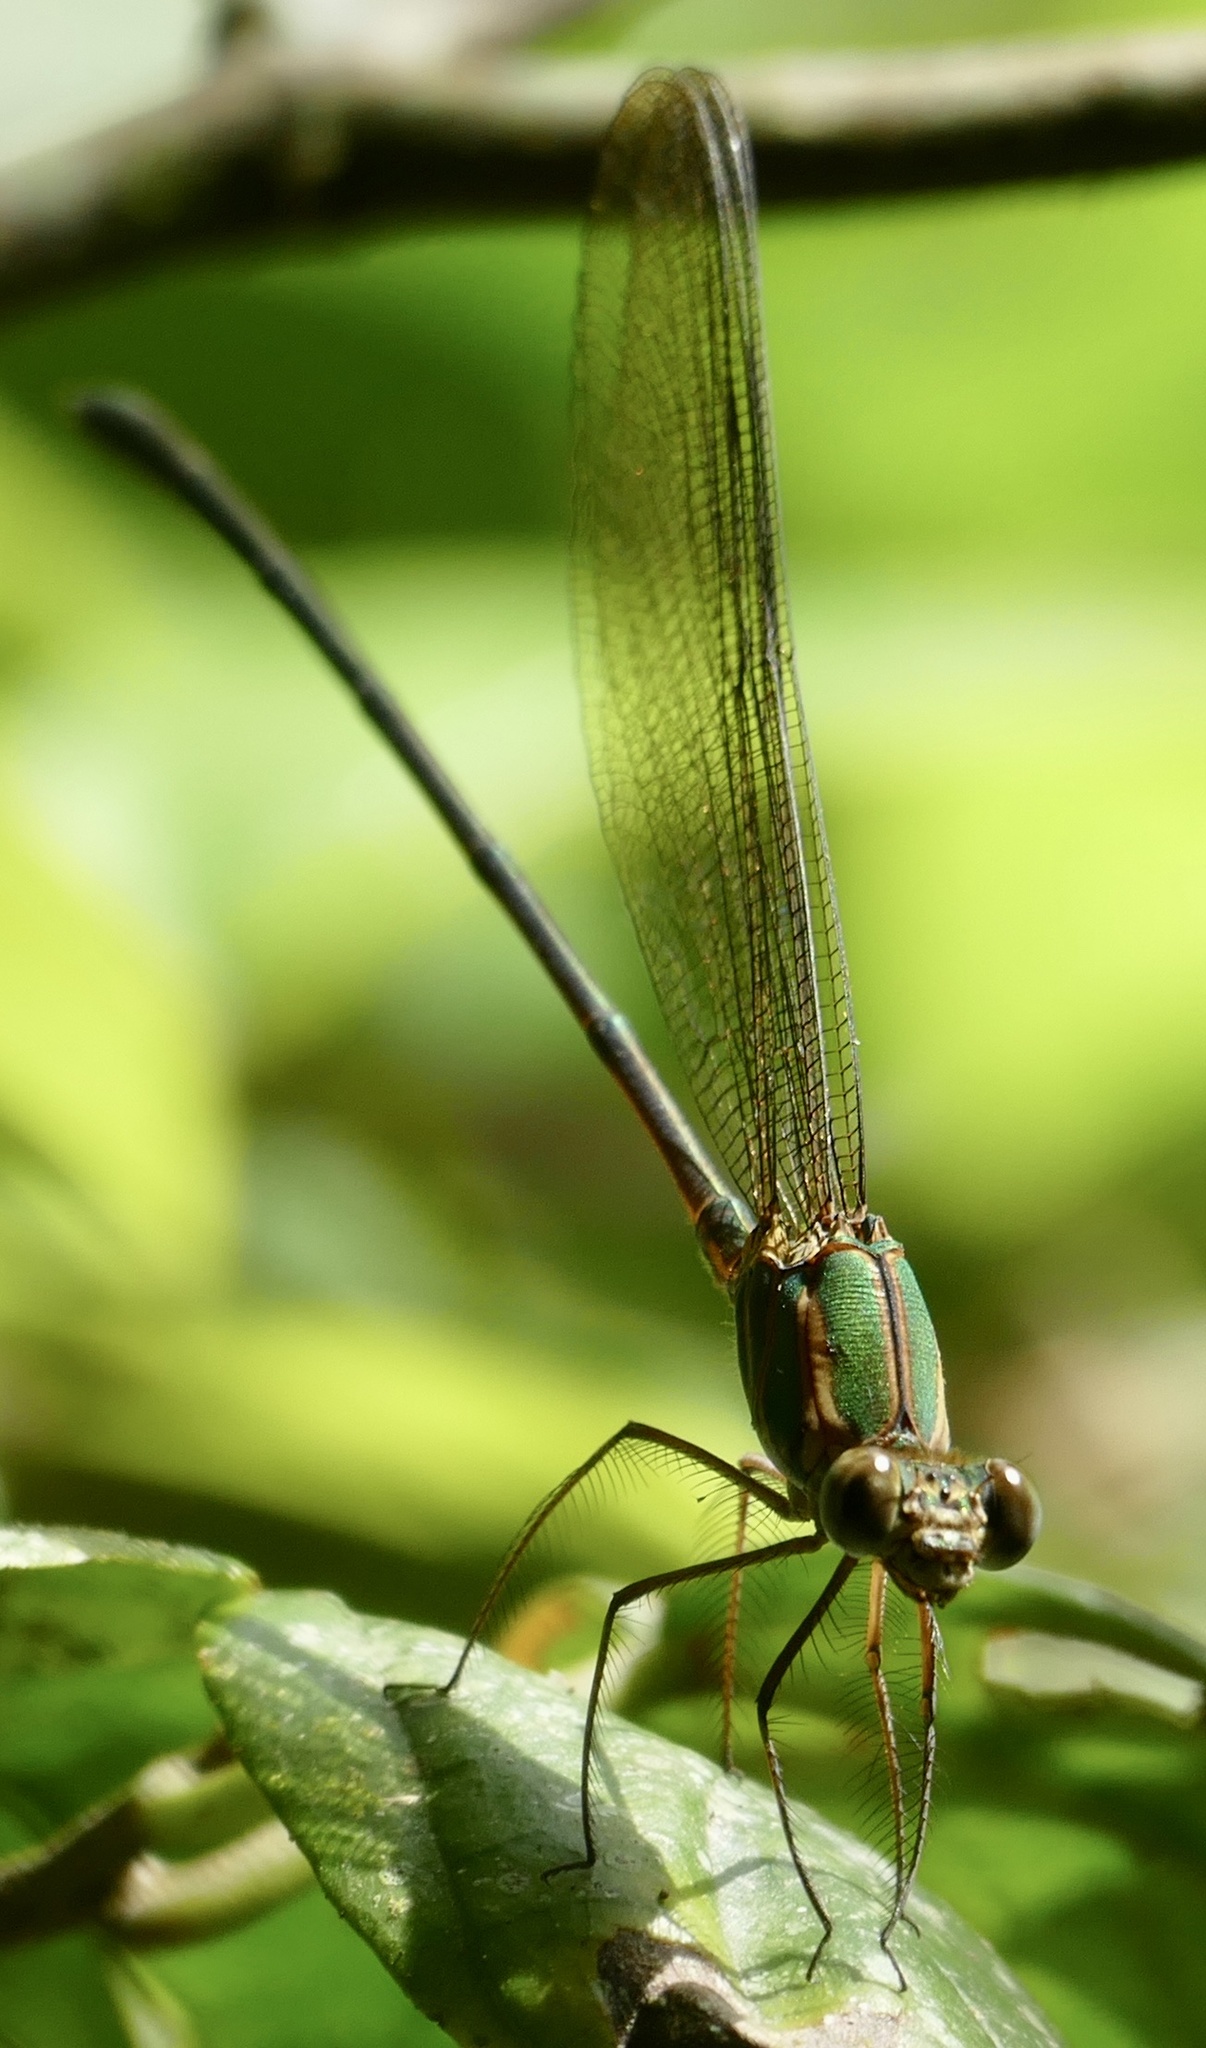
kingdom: Animalia
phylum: Arthropoda
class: Insecta
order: Odonata
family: Calopterygidae
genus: Phaon
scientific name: Phaon iridipennis
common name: Glistening demoiselle
